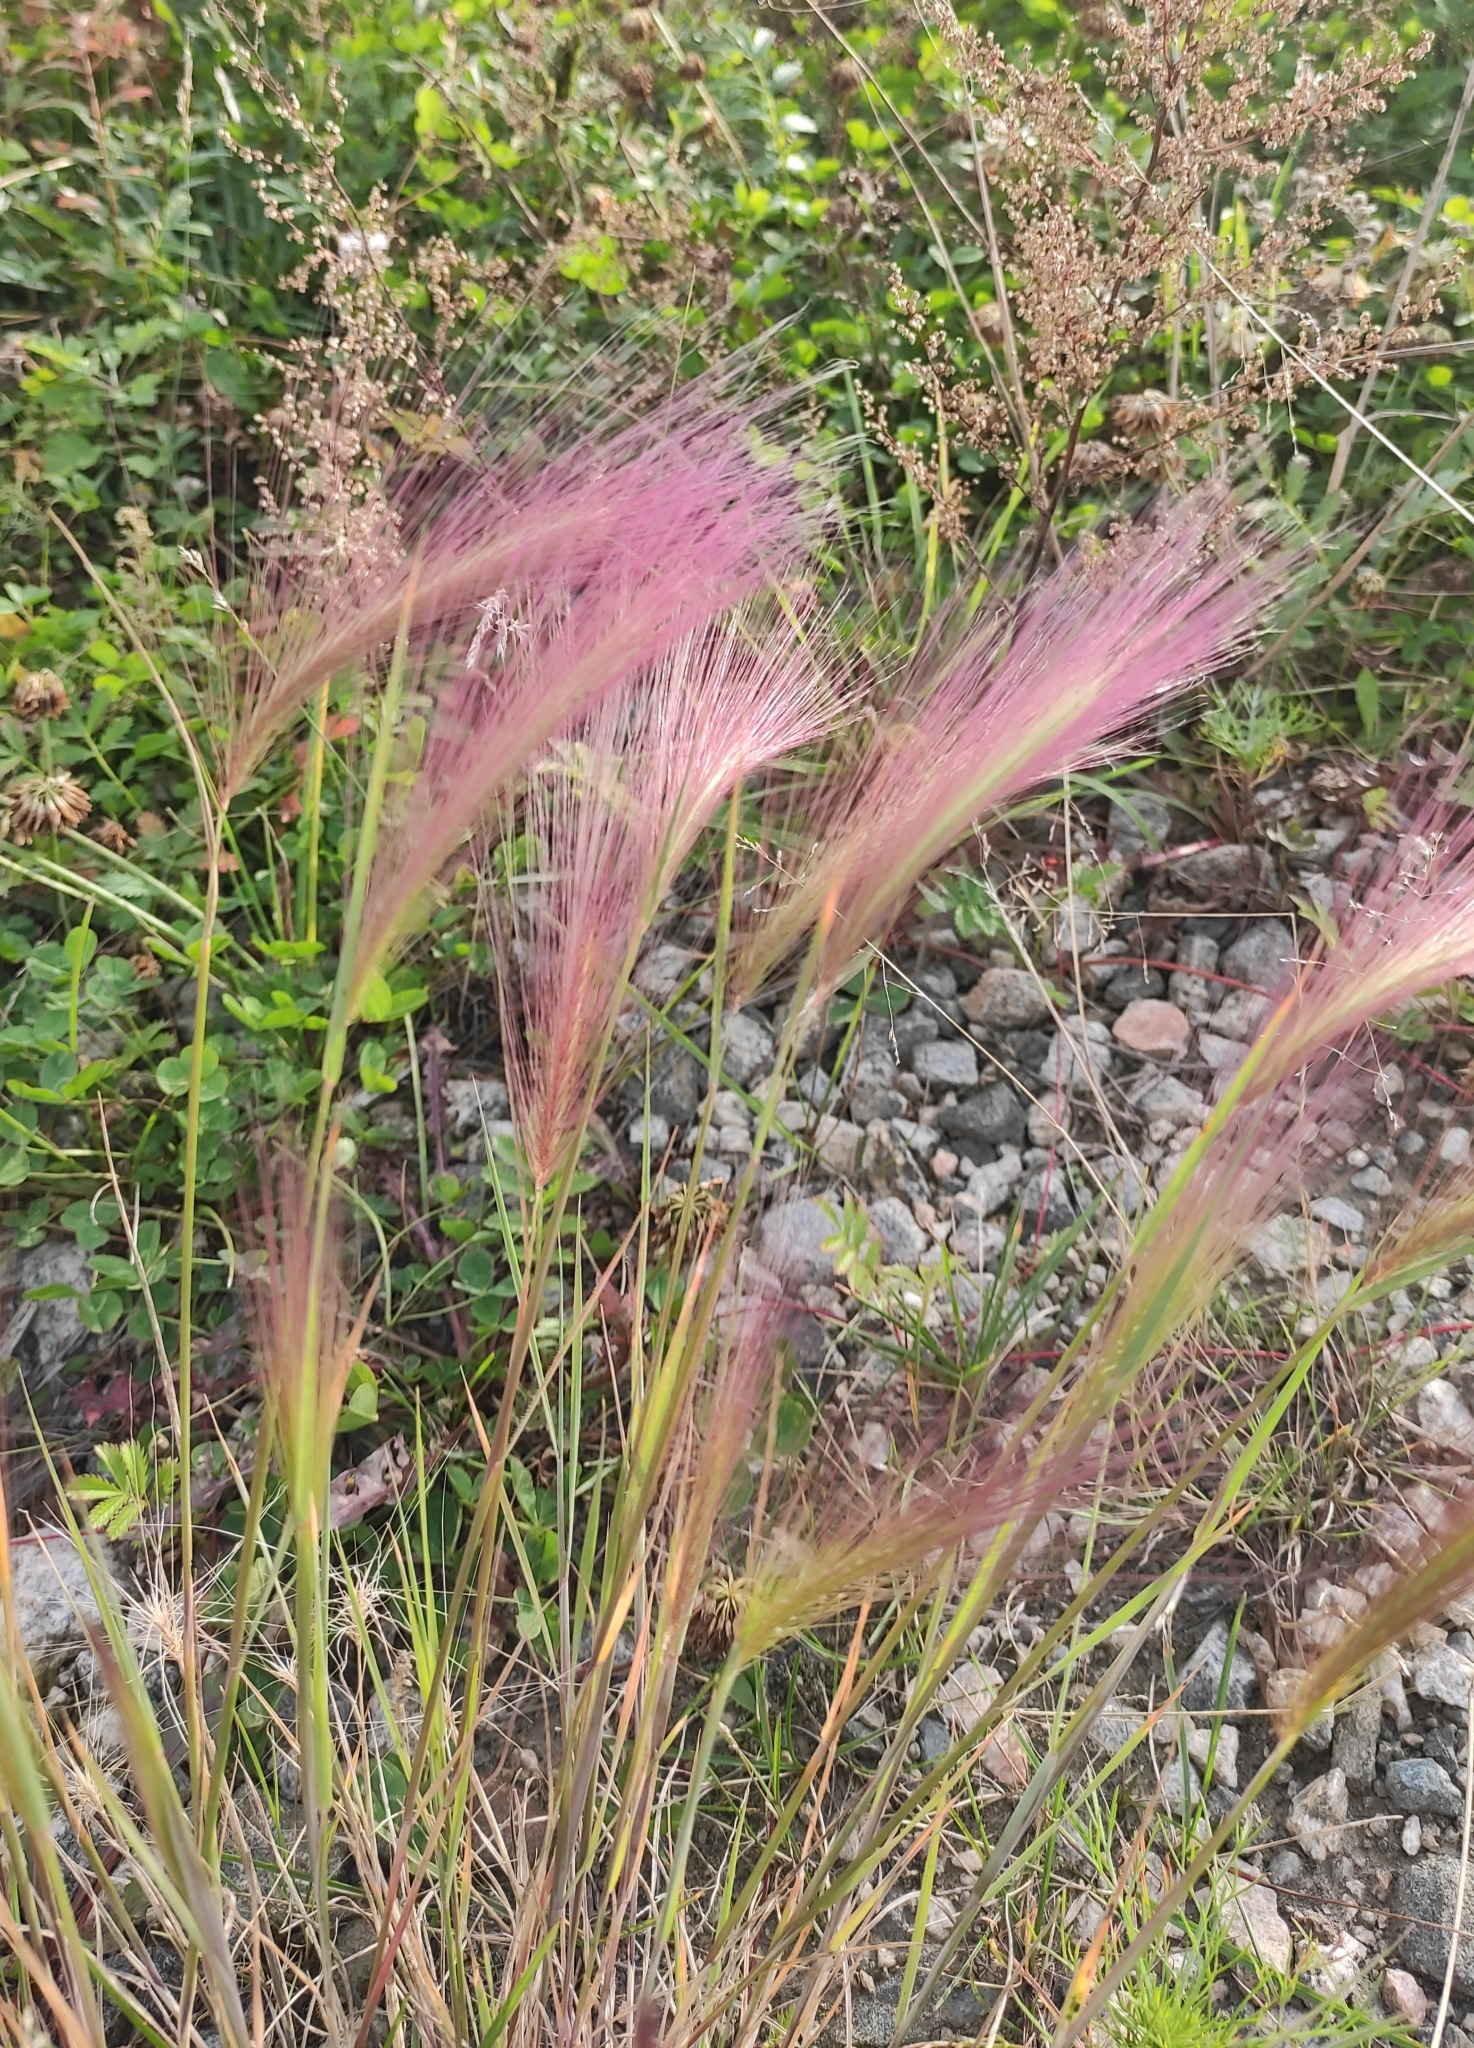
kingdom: Plantae
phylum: Tracheophyta
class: Liliopsida
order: Poales
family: Poaceae
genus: Hordeum
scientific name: Hordeum jubatum
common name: Foxtail barley
